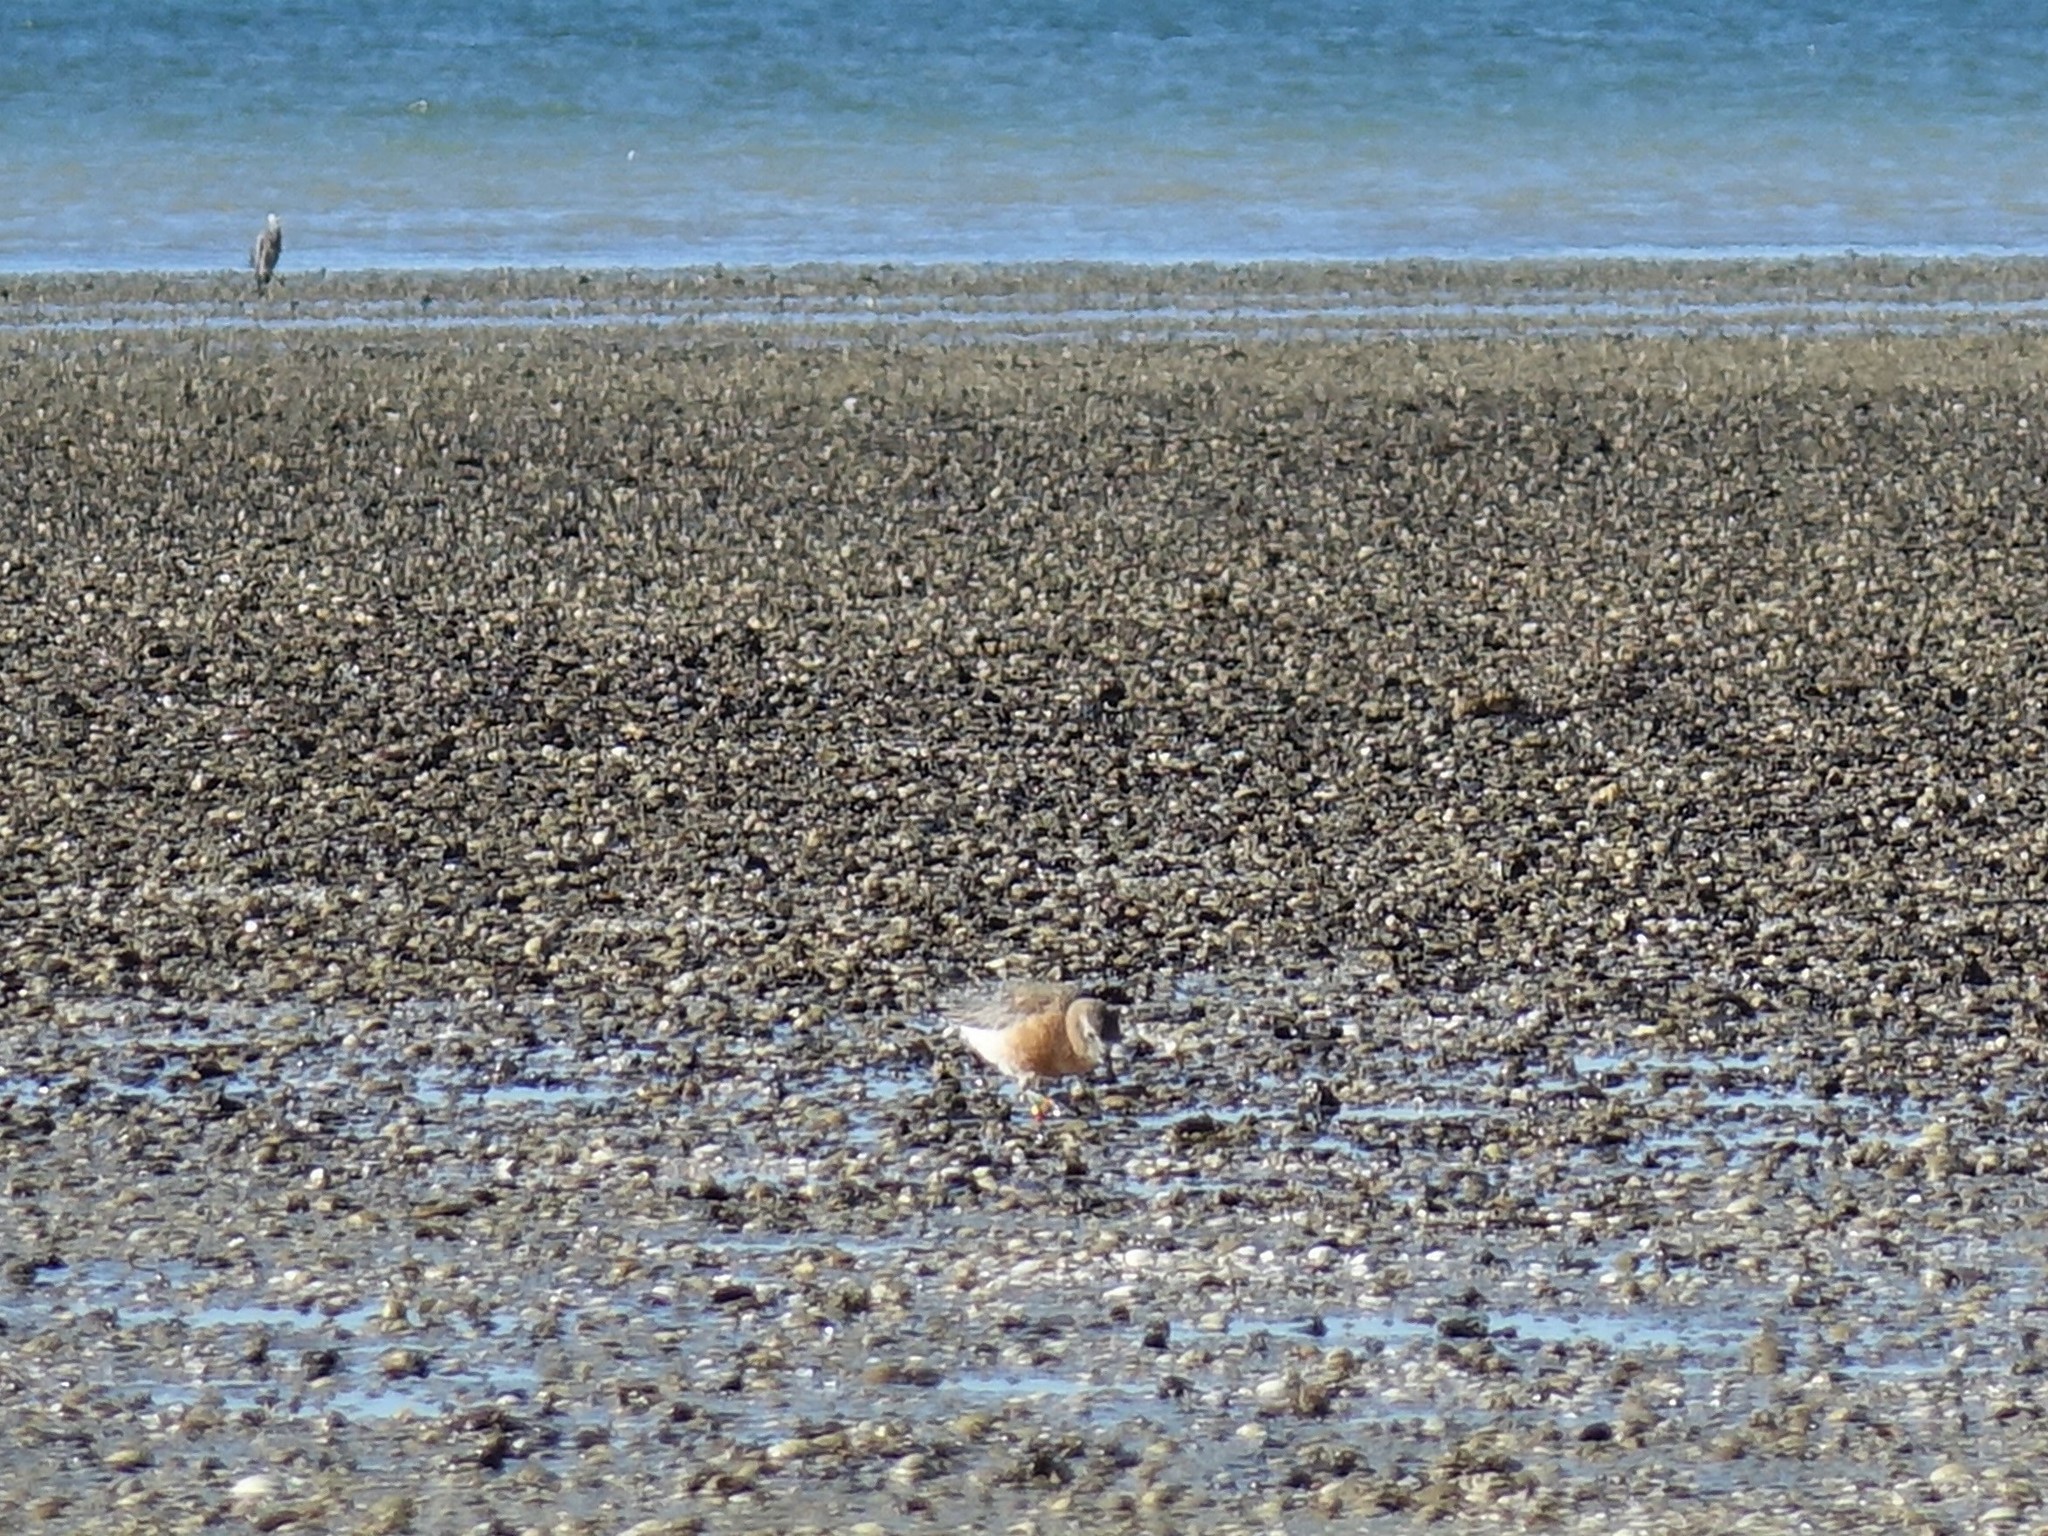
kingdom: Animalia
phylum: Chordata
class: Aves
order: Charadriiformes
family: Charadriidae
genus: Anarhynchus
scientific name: Anarhynchus
